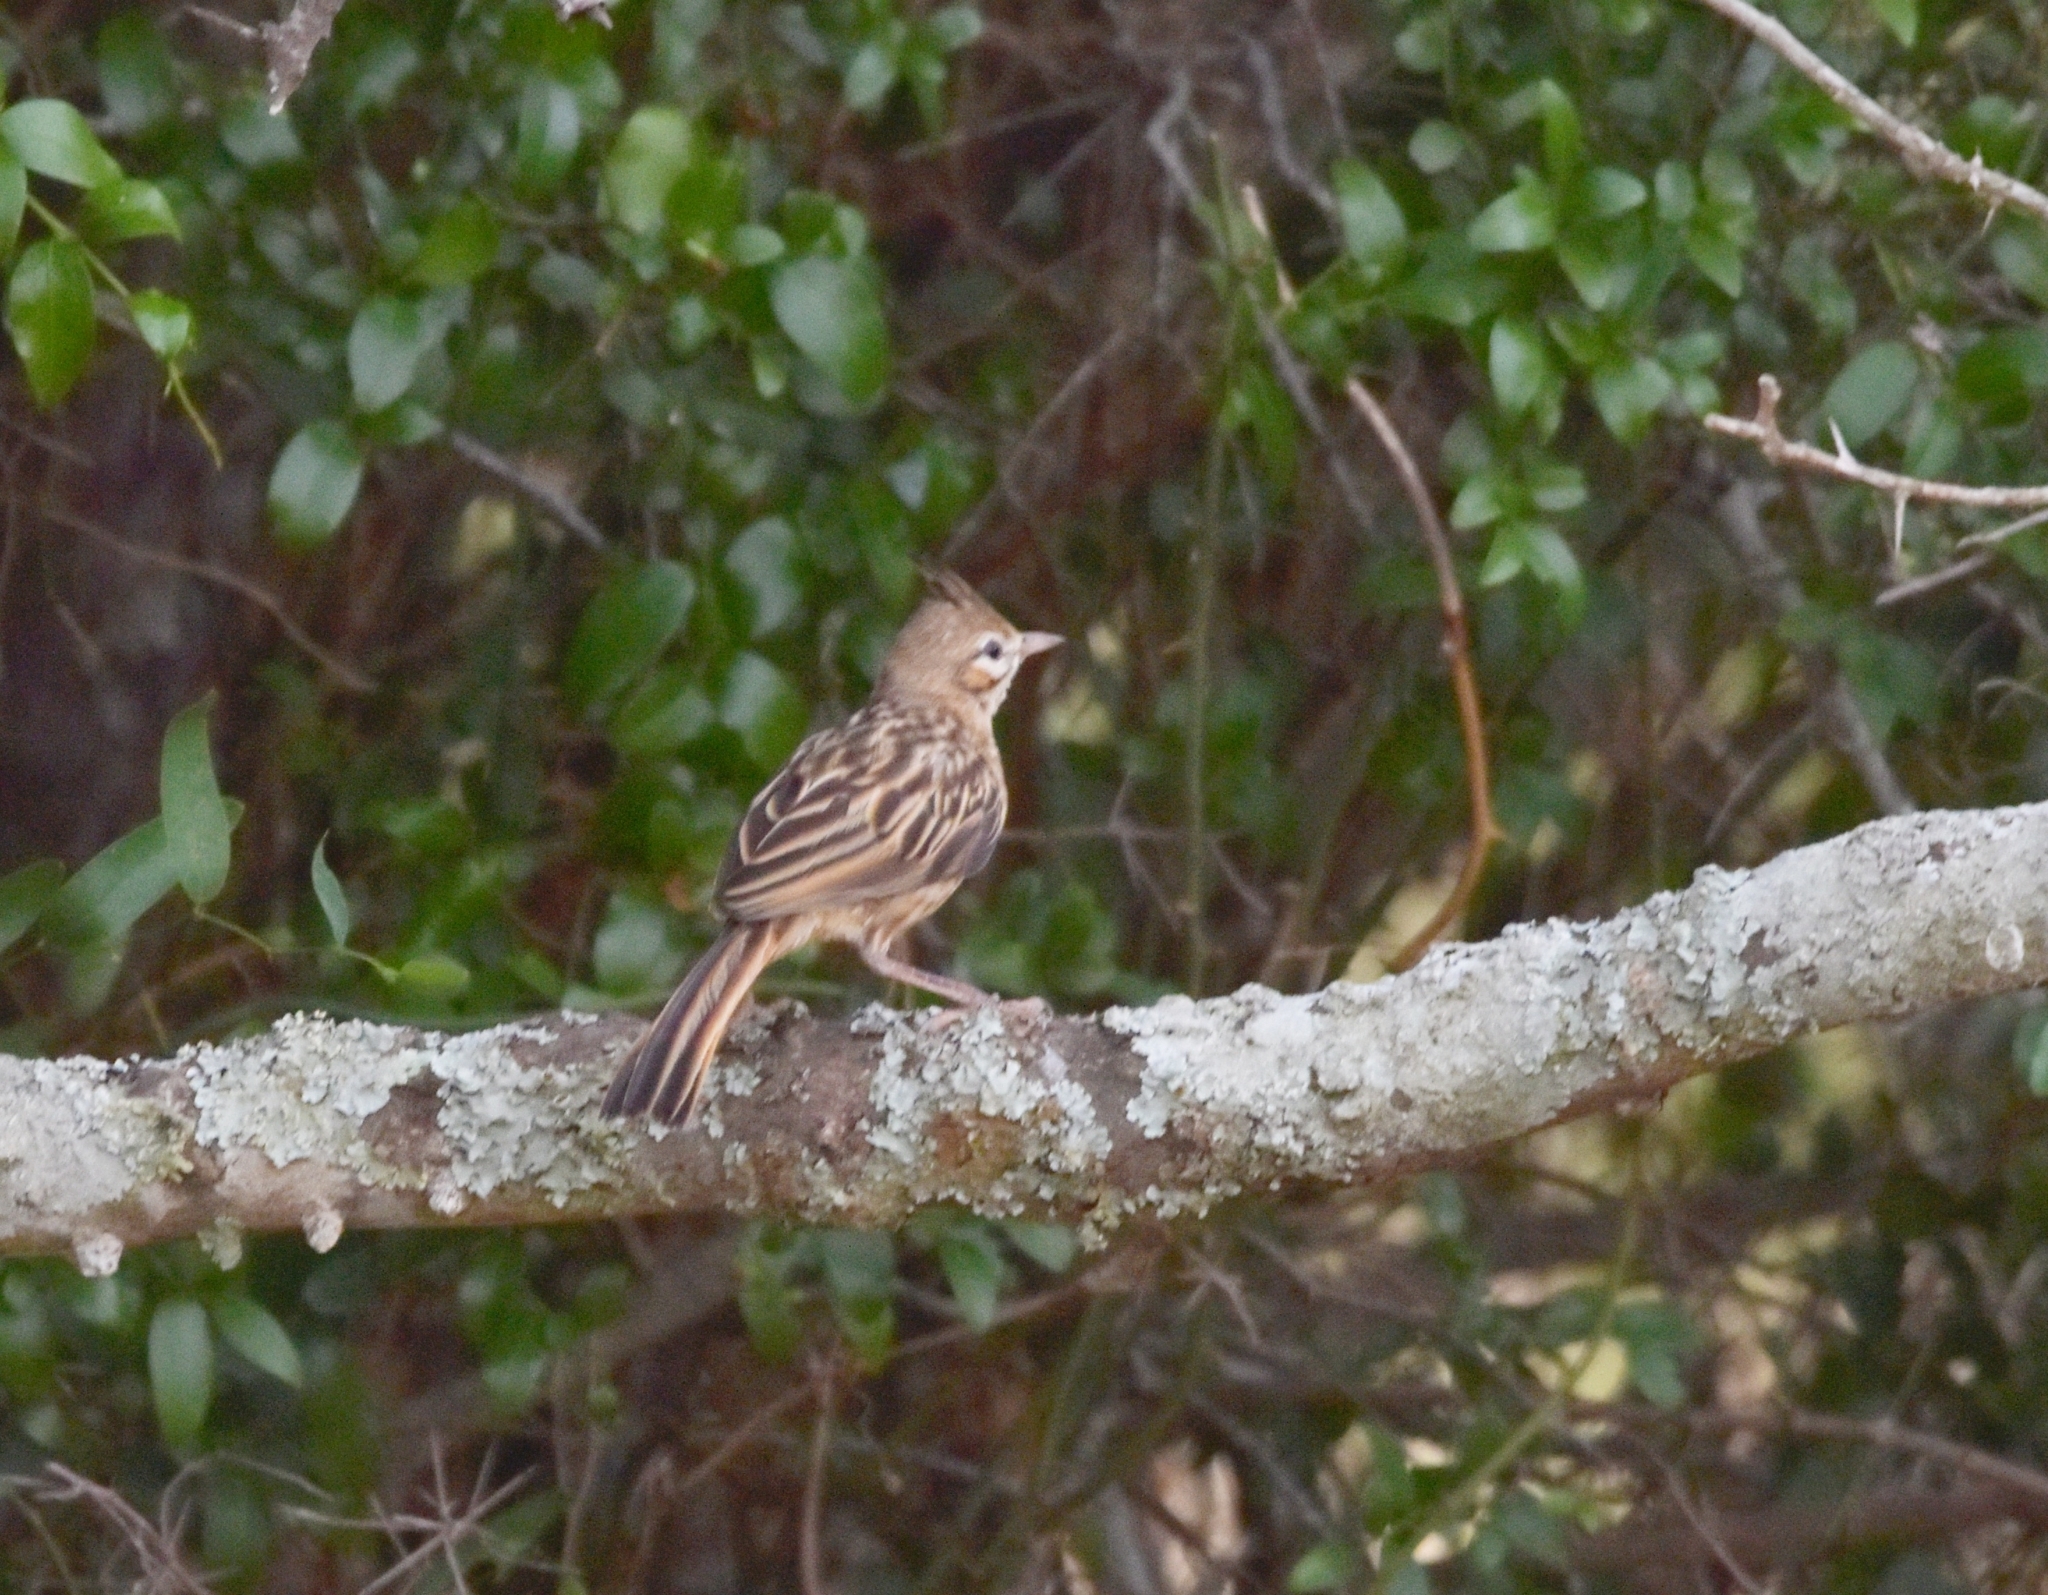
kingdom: Animalia
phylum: Chordata
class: Aves
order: Passeriformes
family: Furnariidae
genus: Coryphistera
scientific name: Coryphistera alaudina
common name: Lark-like brushrunner
